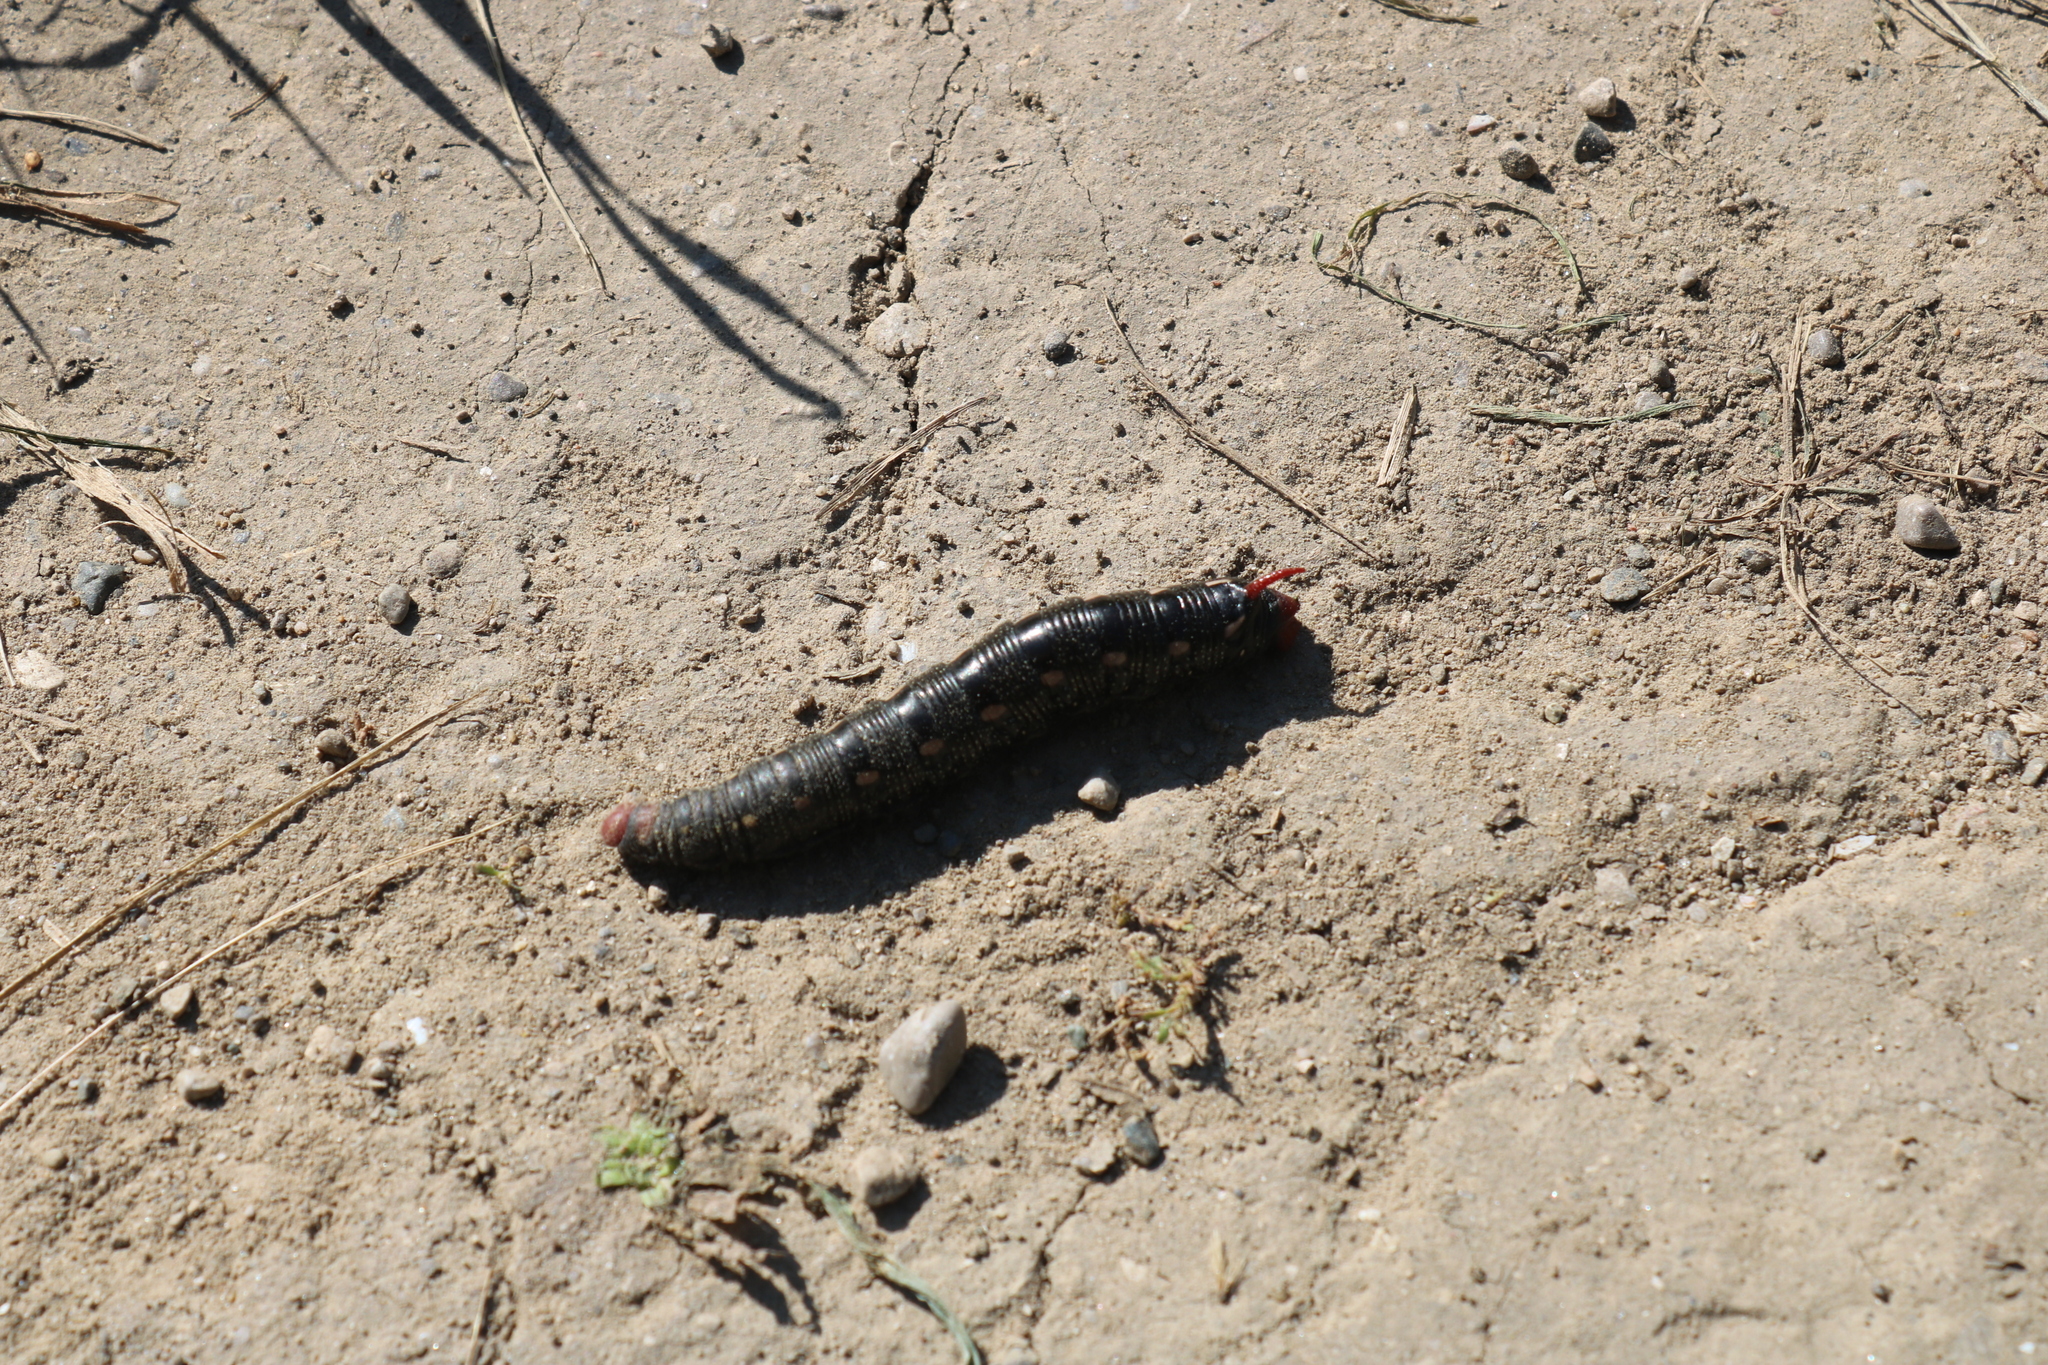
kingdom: Animalia
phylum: Arthropoda
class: Insecta
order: Lepidoptera
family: Sphingidae
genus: Hyles
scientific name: Hyles gallii
